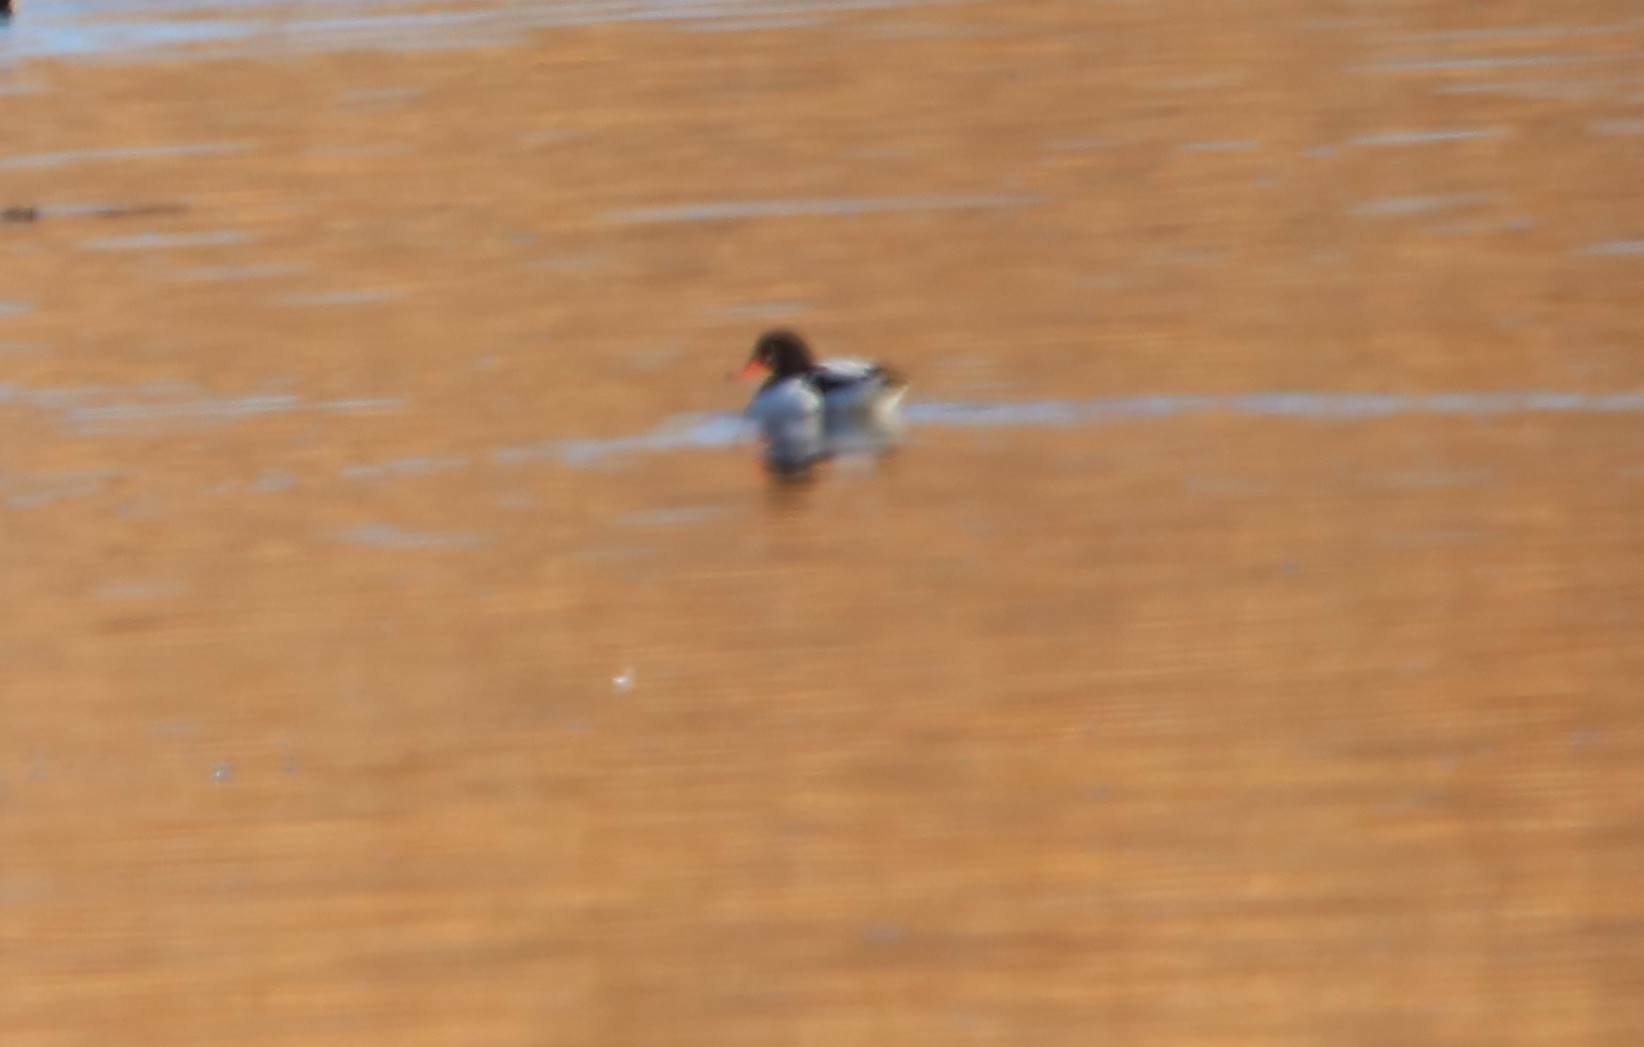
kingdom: Animalia
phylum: Chordata
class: Aves
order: Anseriformes
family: Anatidae
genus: Tadorna
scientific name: Tadorna tadorna
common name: Common shelduck
